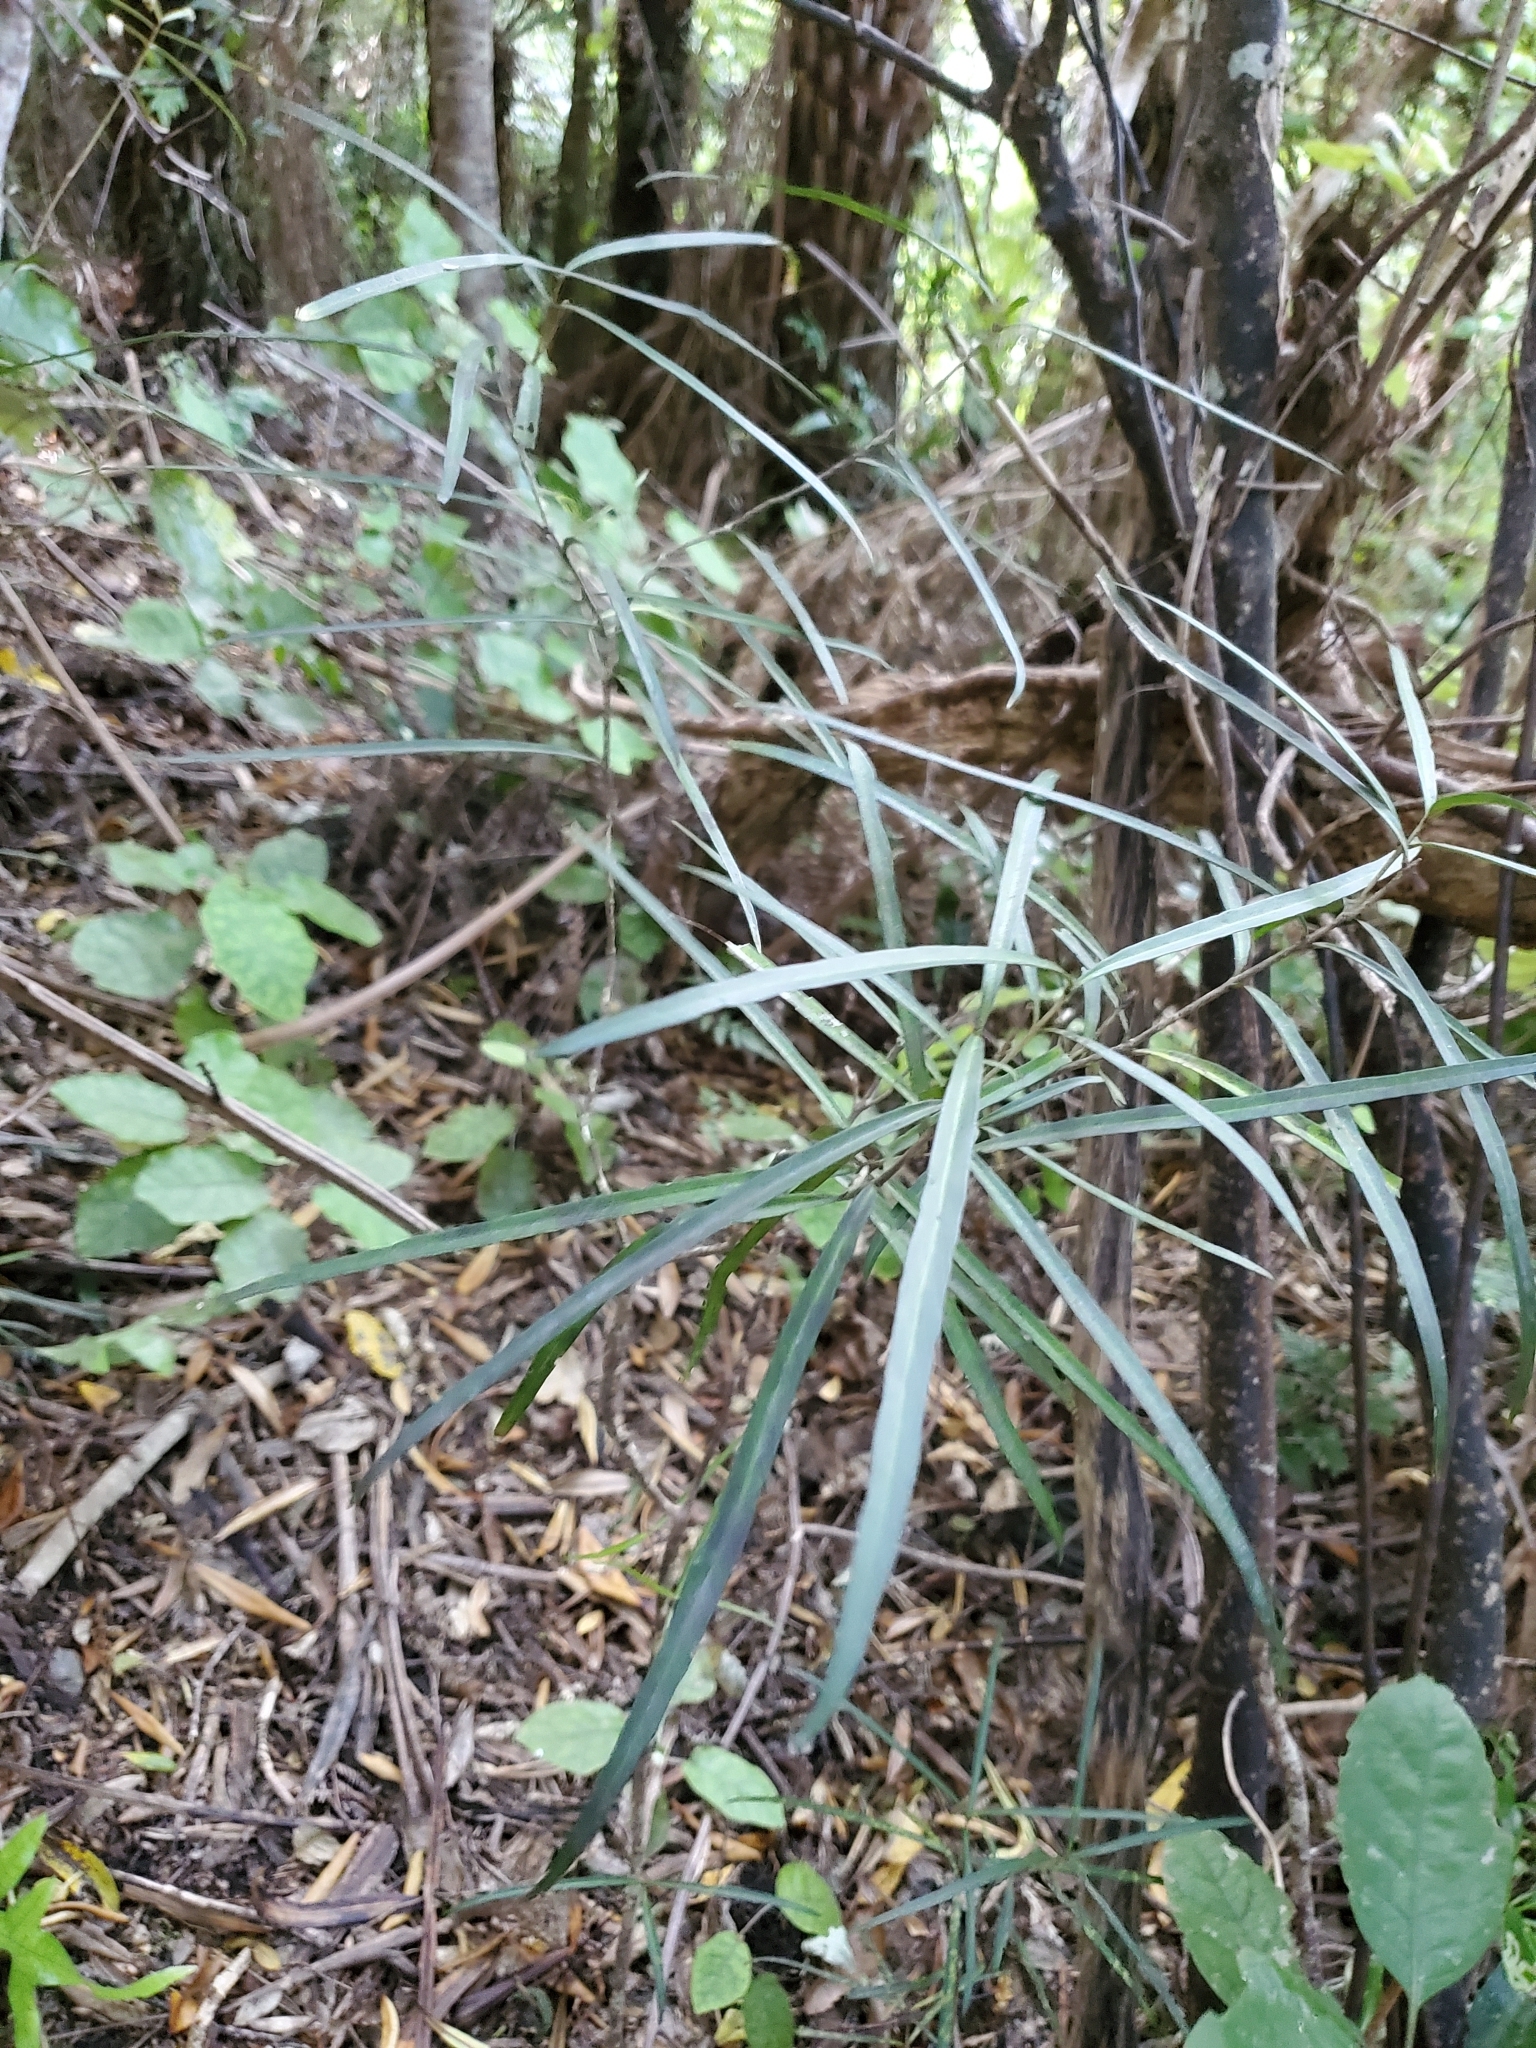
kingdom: Plantae
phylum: Tracheophyta
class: Magnoliopsida
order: Lamiales
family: Oleaceae
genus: Nestegis
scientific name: Nestegis lanceolata
